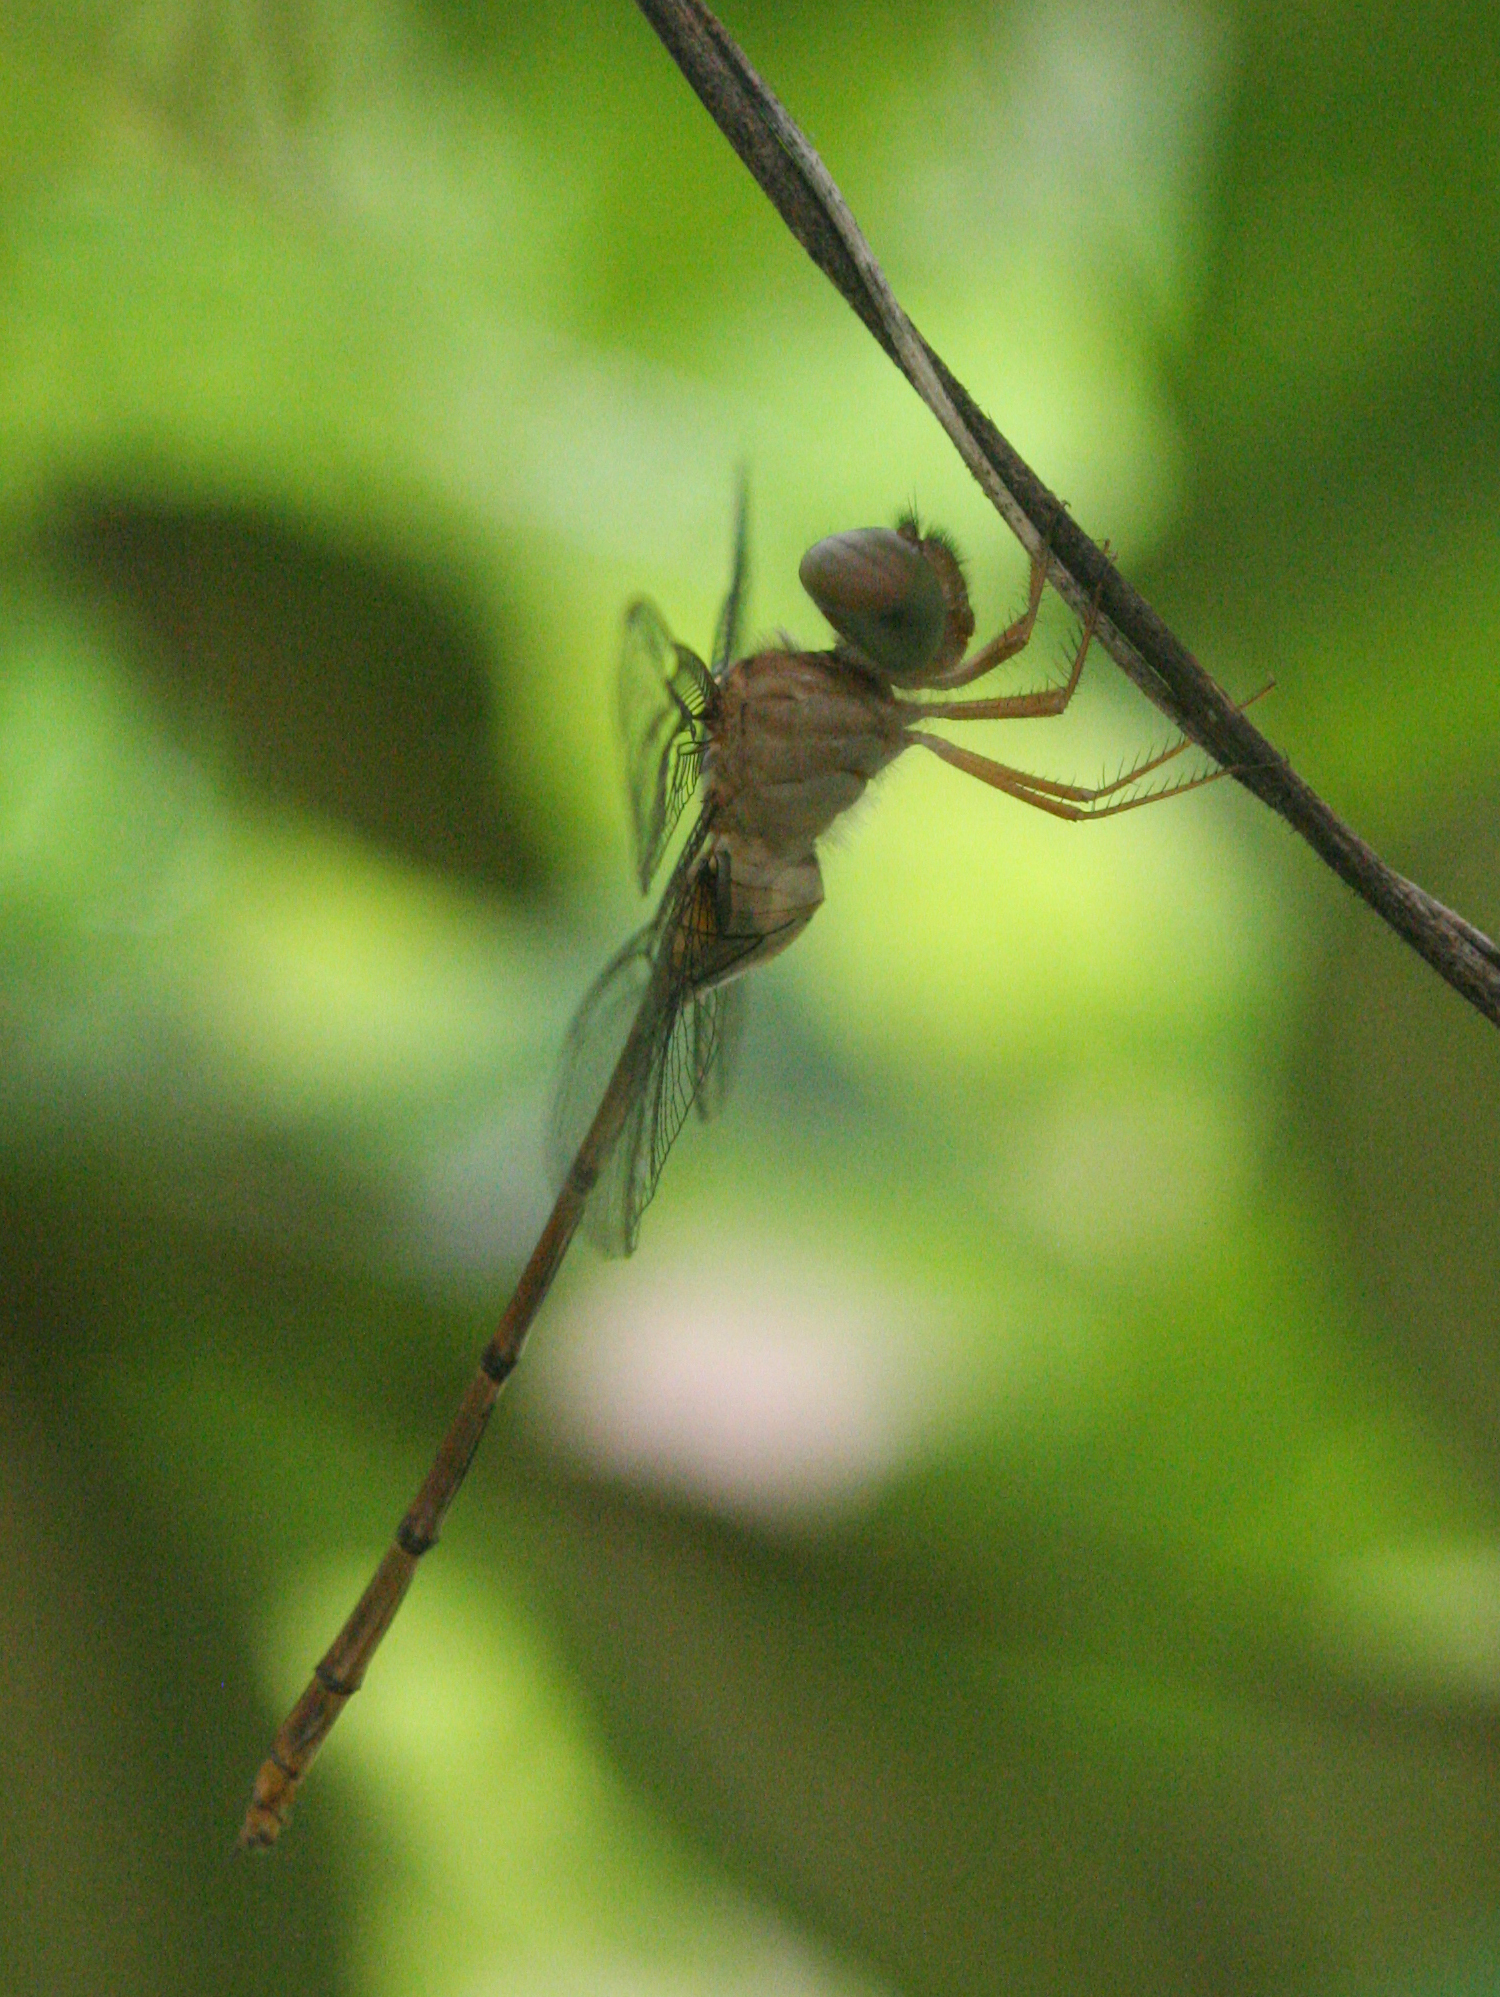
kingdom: Animalia
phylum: Arthropoda
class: Insecta
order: Odonata
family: Libellulidae
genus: Zyxomma
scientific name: Zyxomma petiolatum
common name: Dingy dusk-darter
